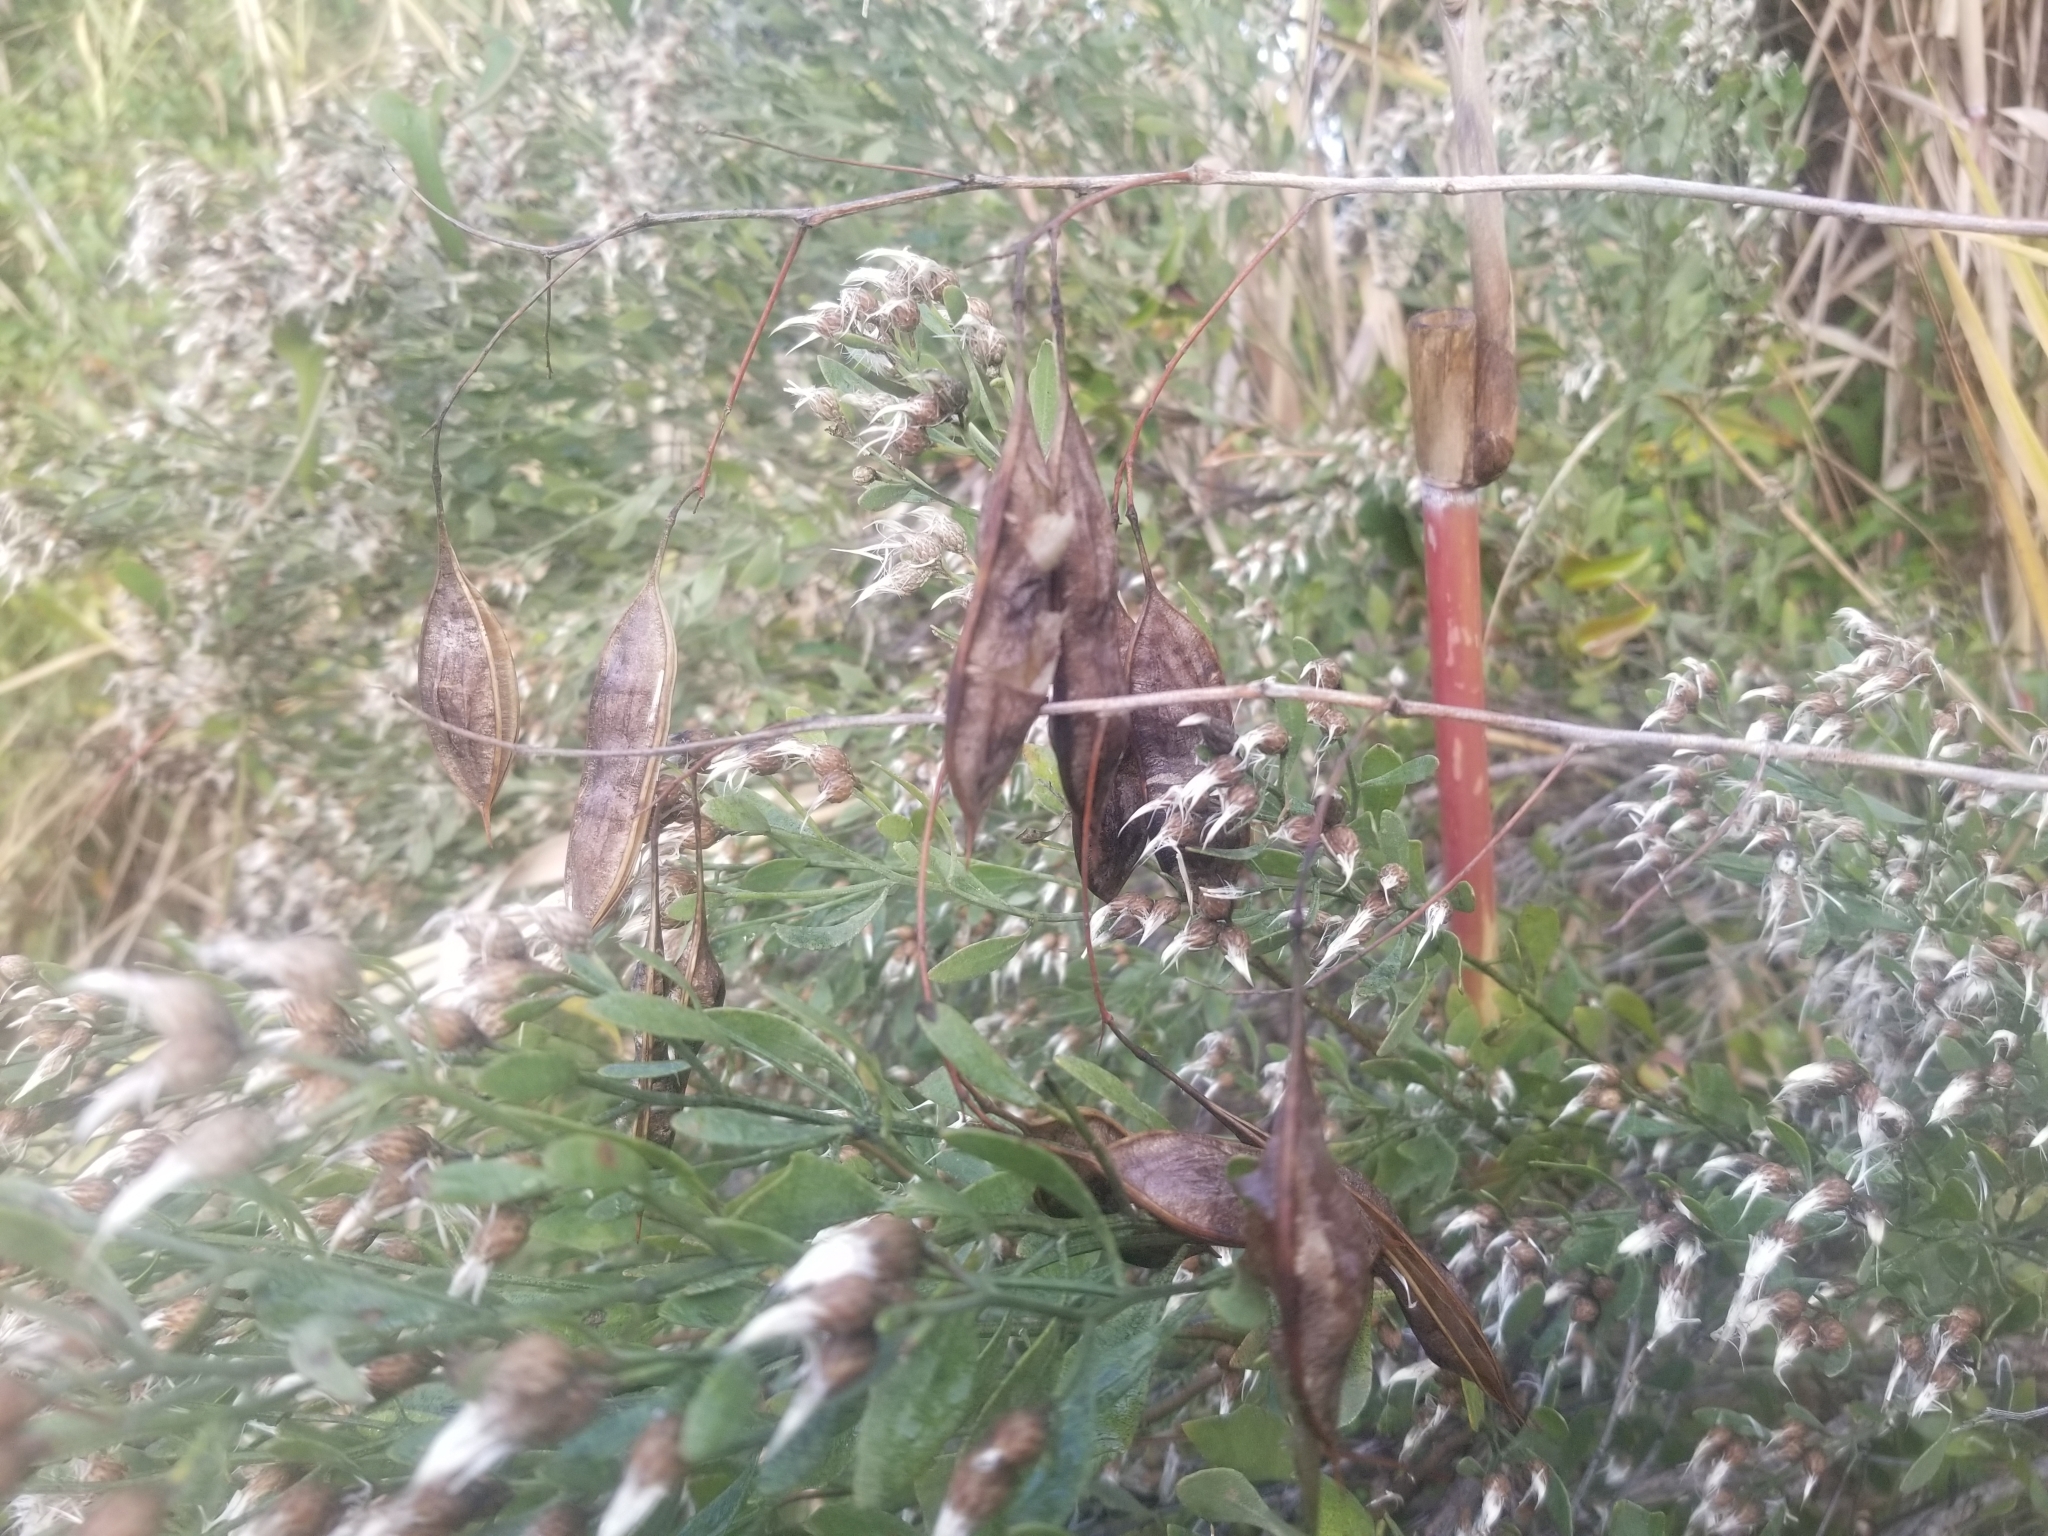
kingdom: Plantae
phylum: Tracheophyta
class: Magnoliopsida
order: Fabales
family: Fabaceae
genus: Sesbania
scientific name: Sesbania vesicaria
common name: Bagpod
